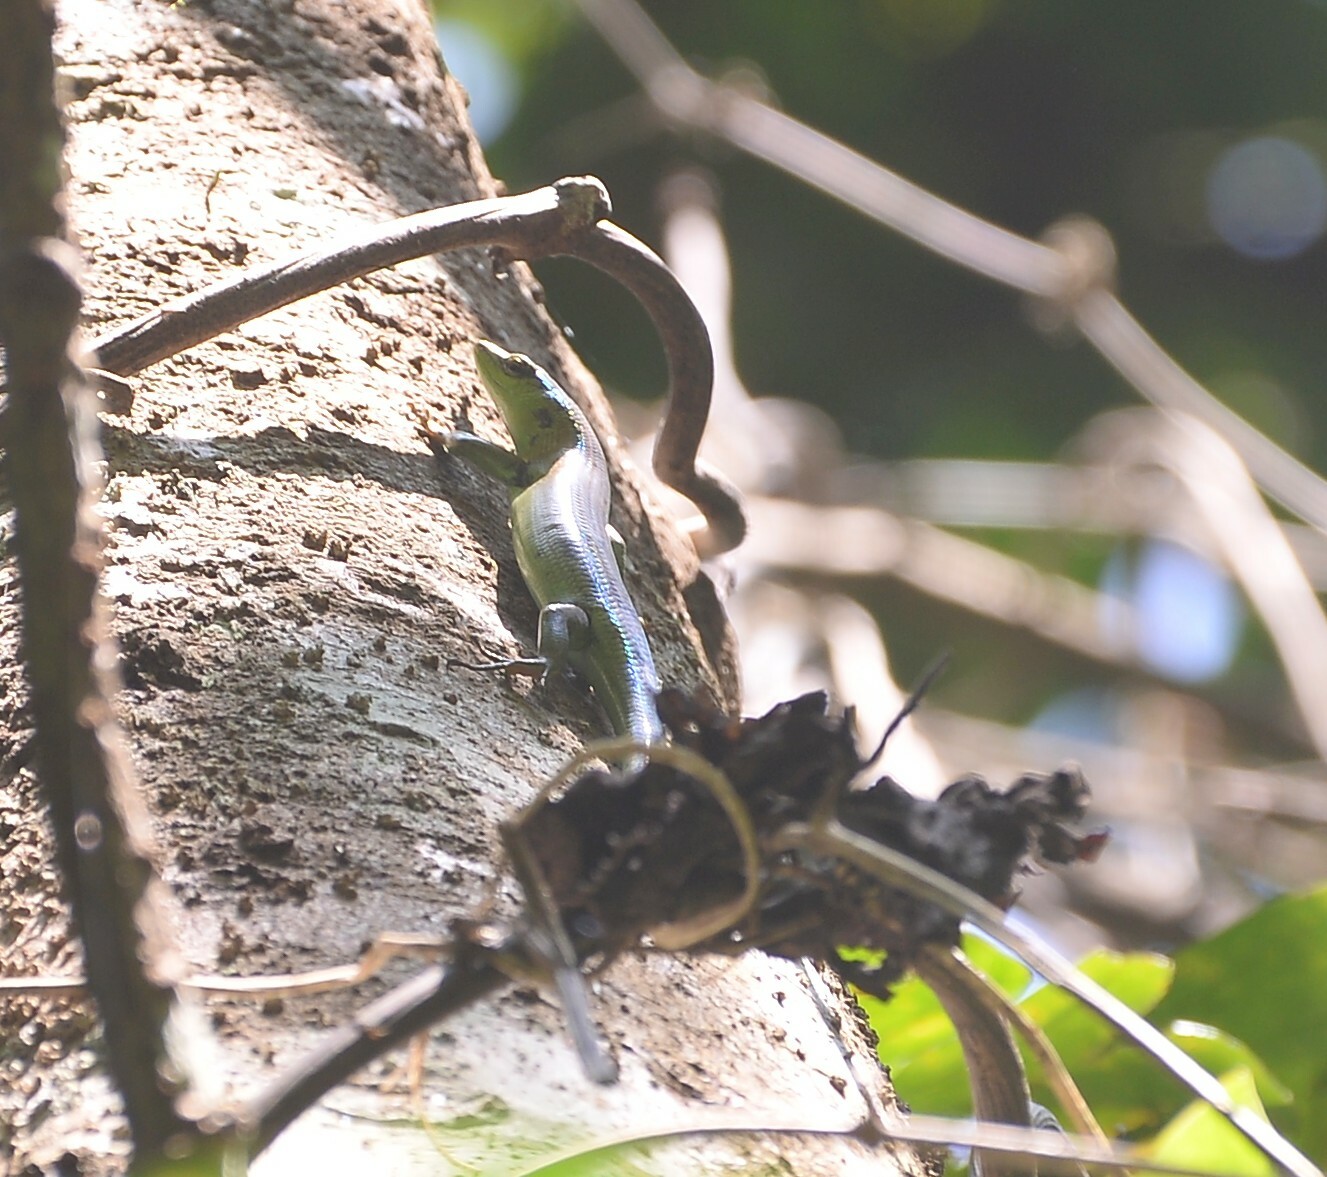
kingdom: Animalia
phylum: Chordata
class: Squamata
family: Scincidae
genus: Emoia
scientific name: Emoia sanfordi
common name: Sanford's tree skink
